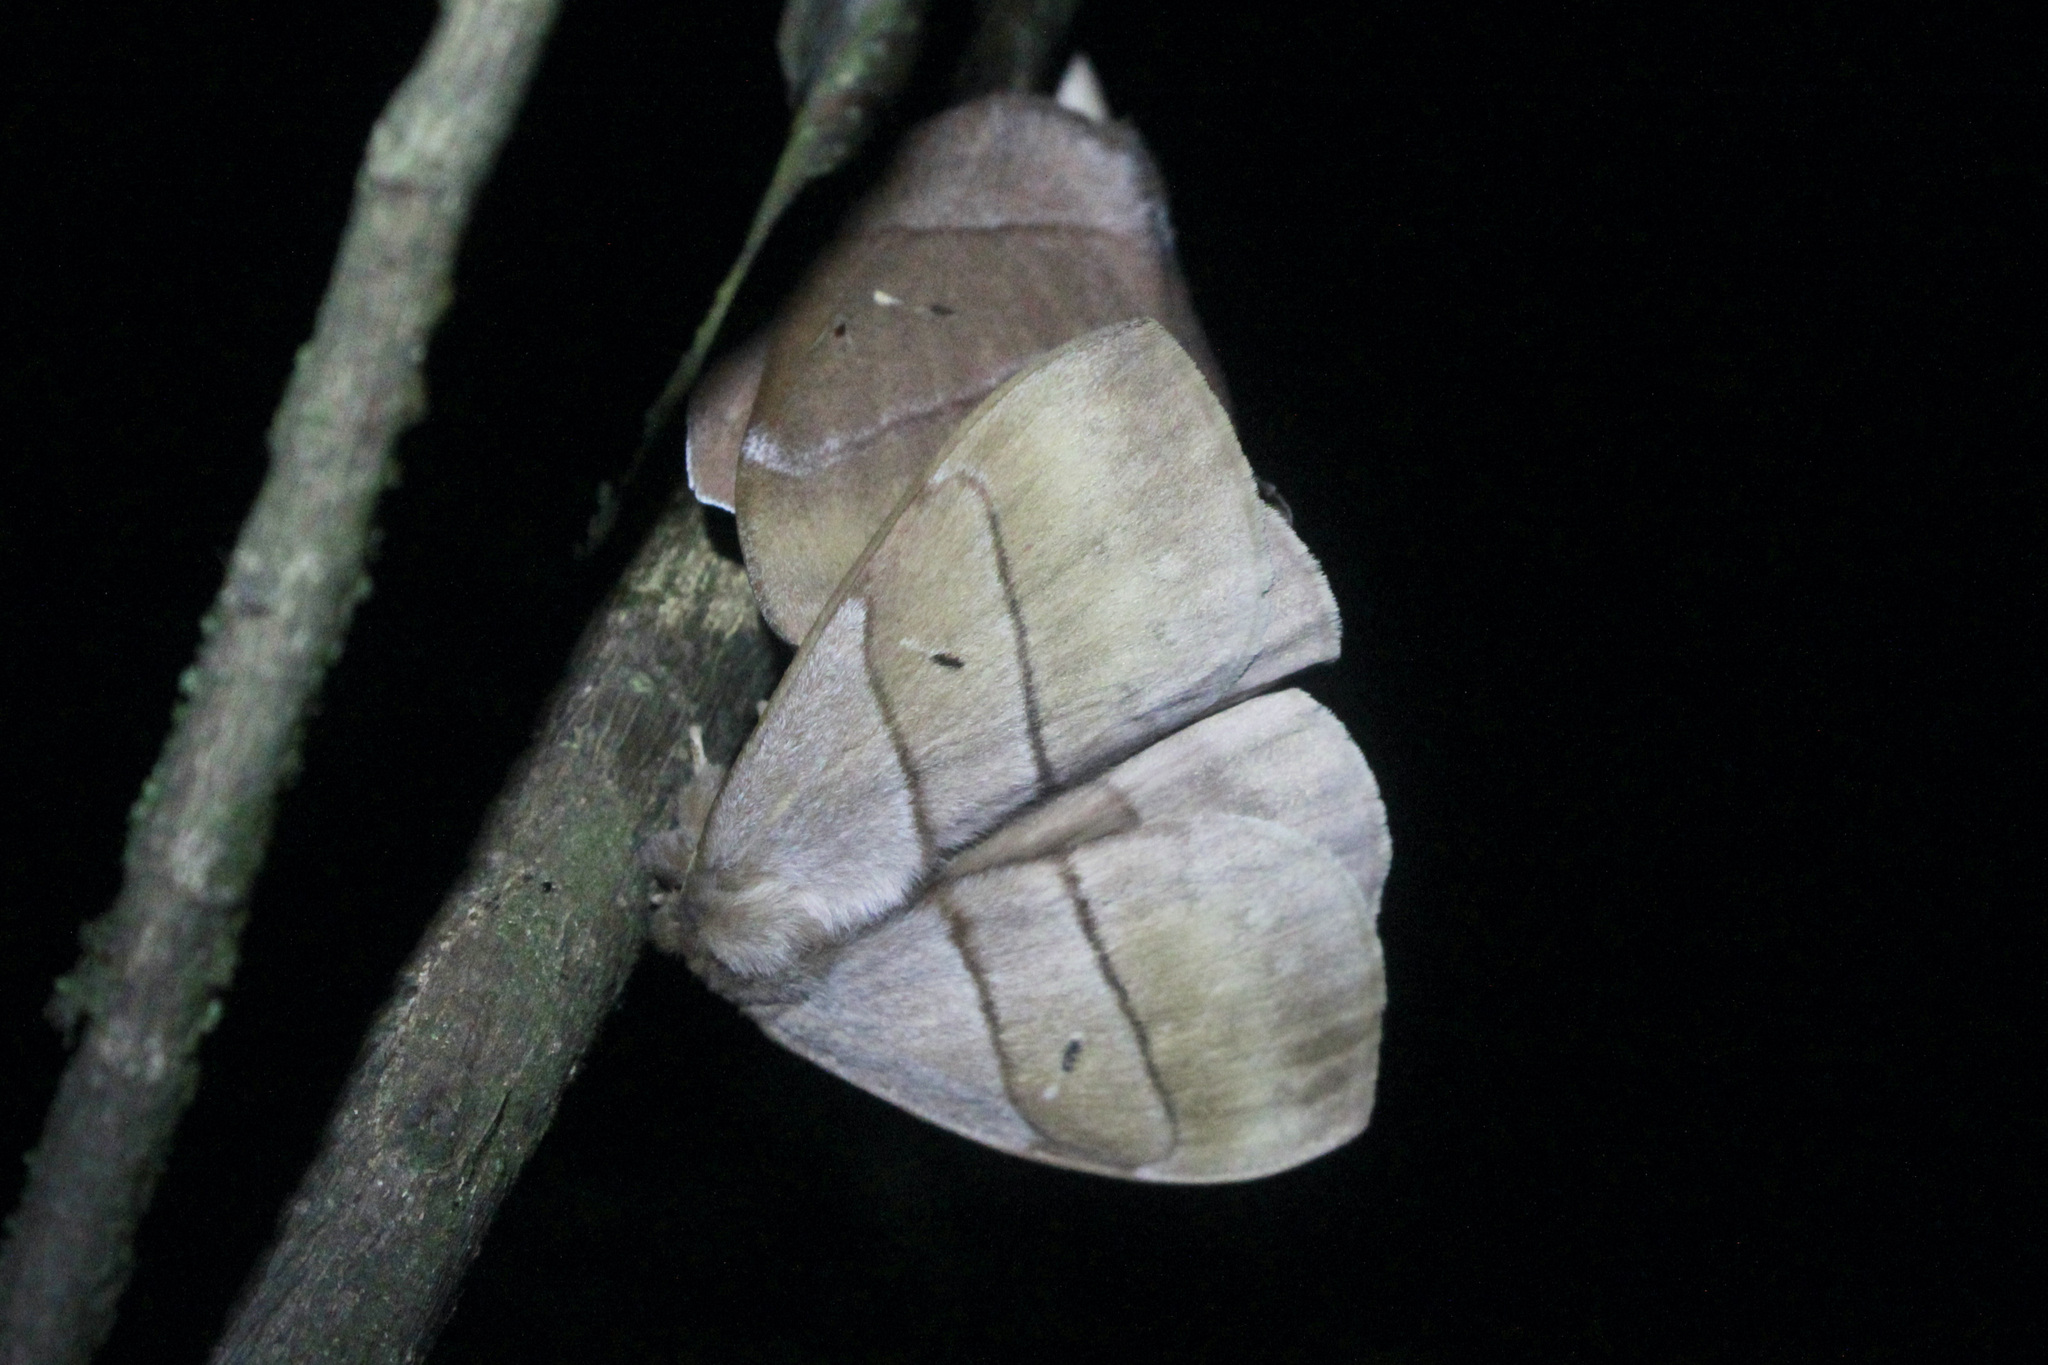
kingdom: Animalia
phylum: Arthropoda
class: Insecta
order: Lepidoptera
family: Saturniidae
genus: Periphoba
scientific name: Periphoba augur
